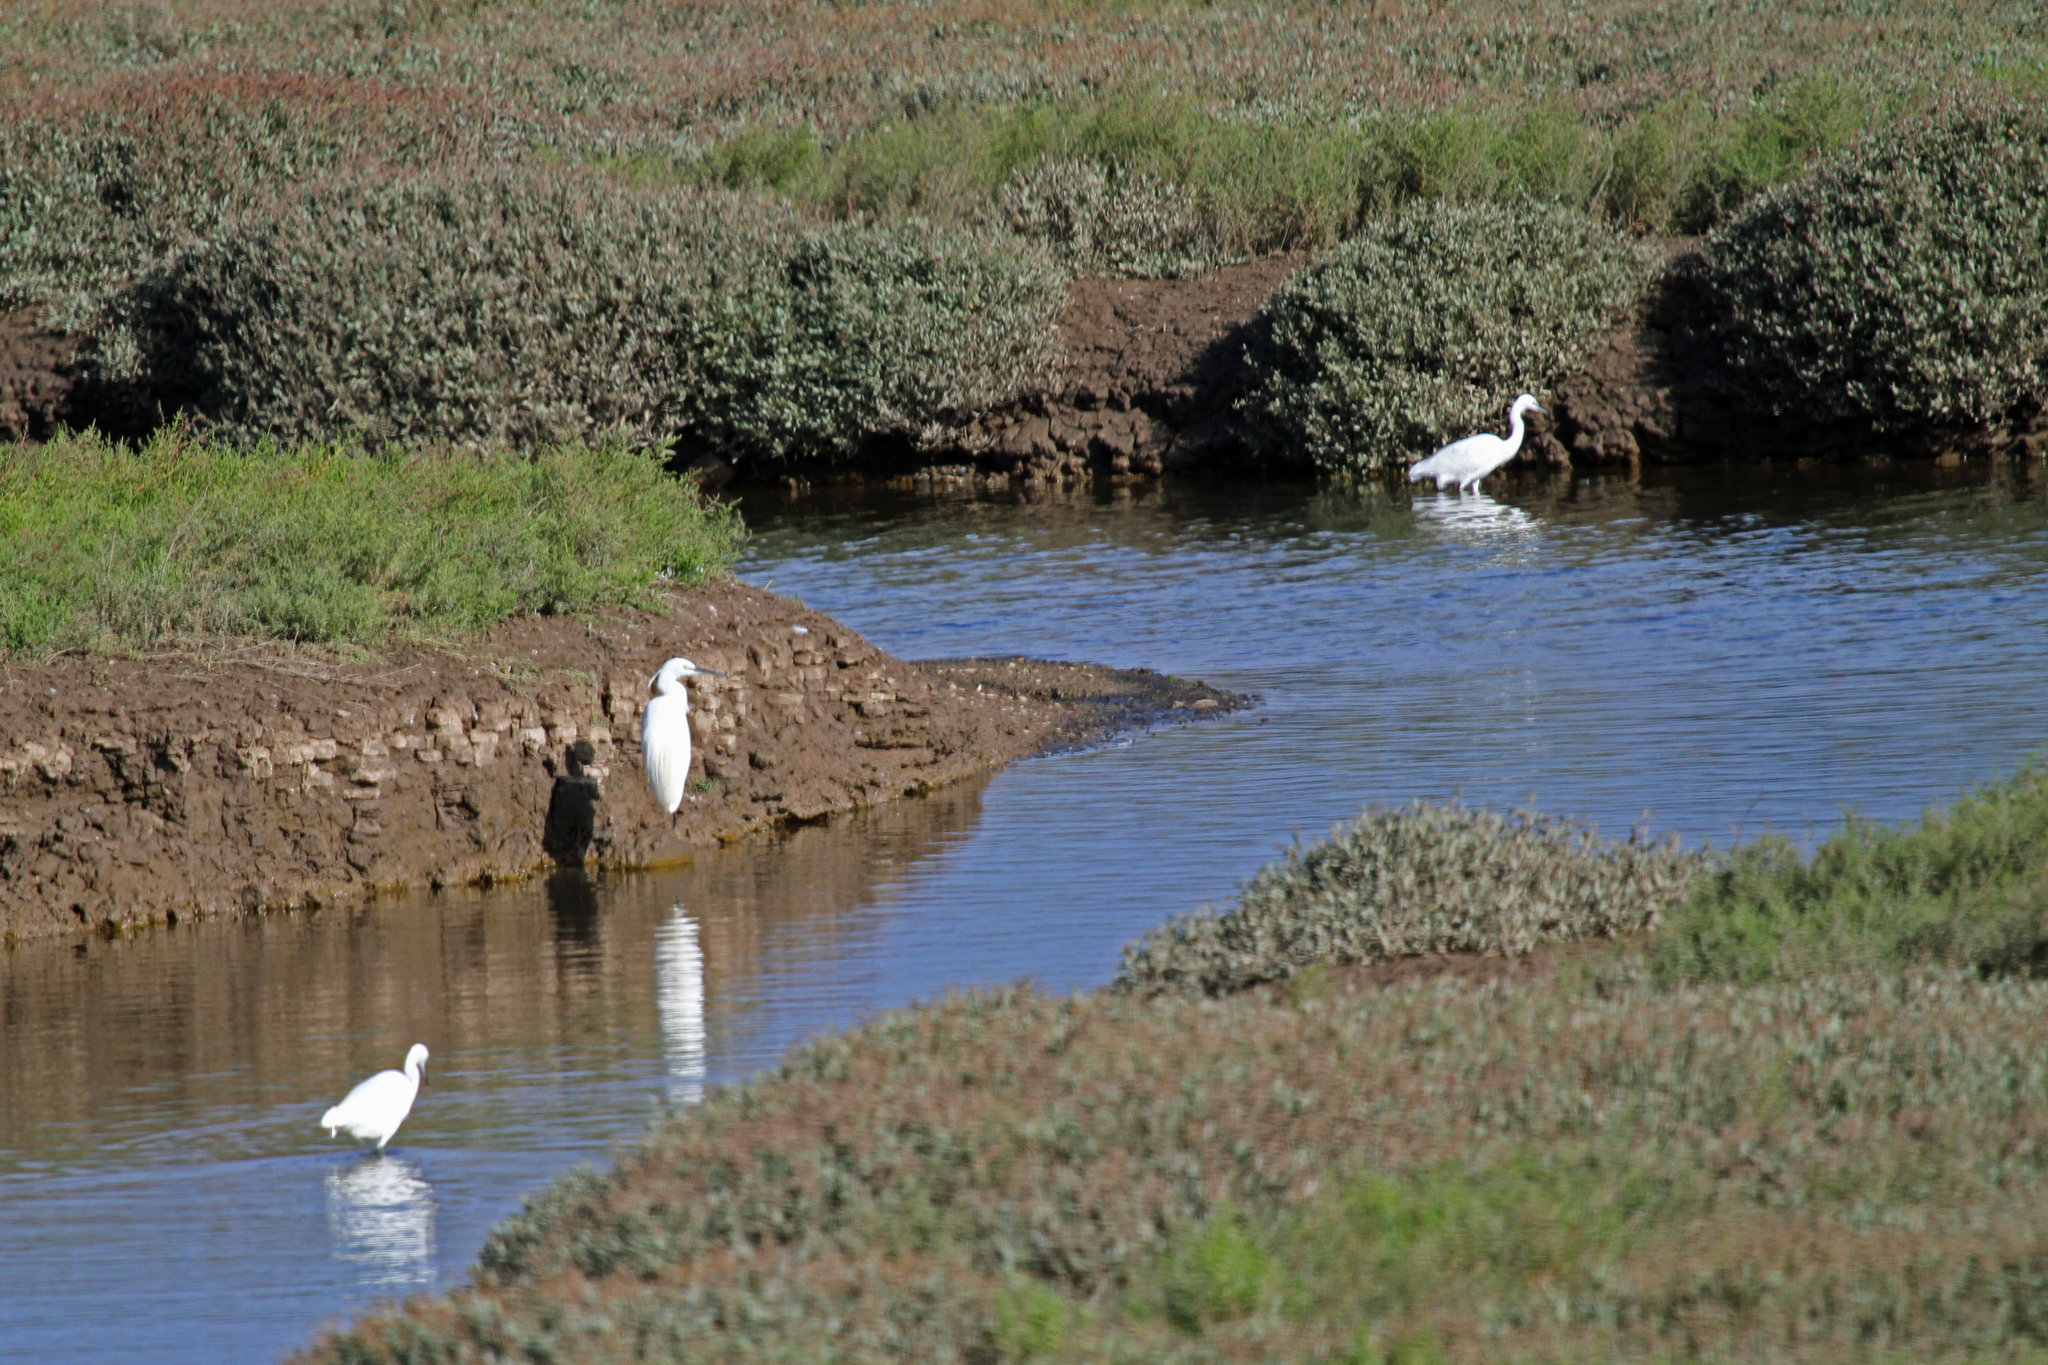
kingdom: Animalia
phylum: Chordata
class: Aves
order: Pelecaniformes
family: Ardeidae
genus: Egretta
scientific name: Egretta garzetta
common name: Little egret
